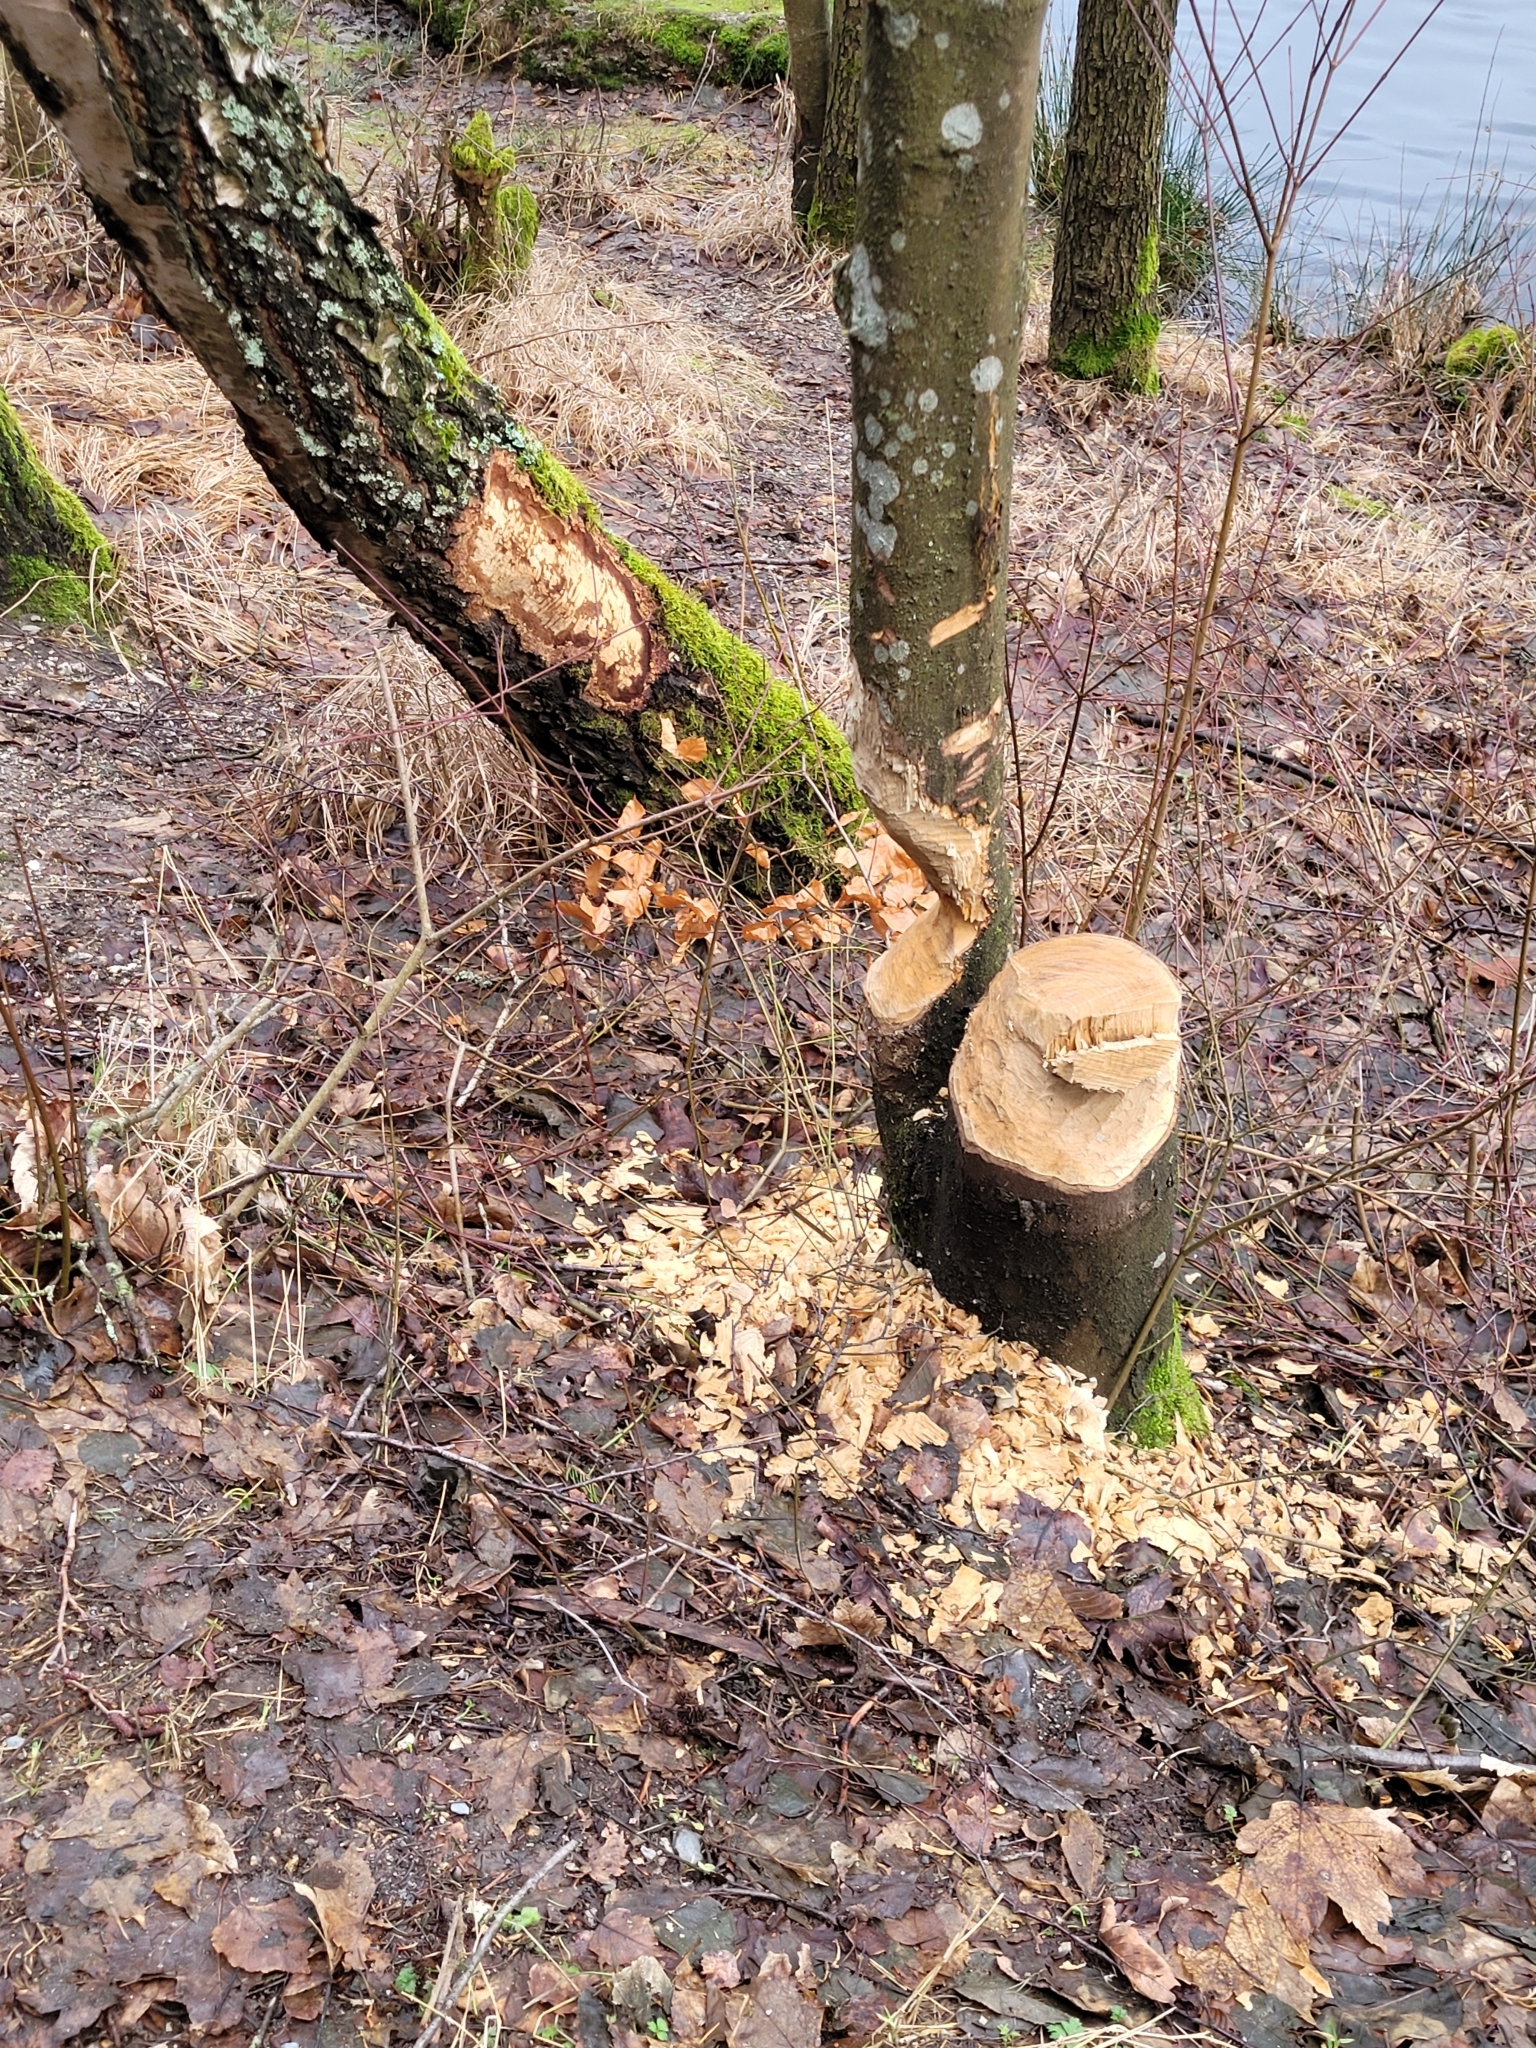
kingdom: Animalia
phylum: Chordata
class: Mammalia
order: Rodentia
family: Castoridae
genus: Castor
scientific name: Castor fiber
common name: Eurasian beaver
